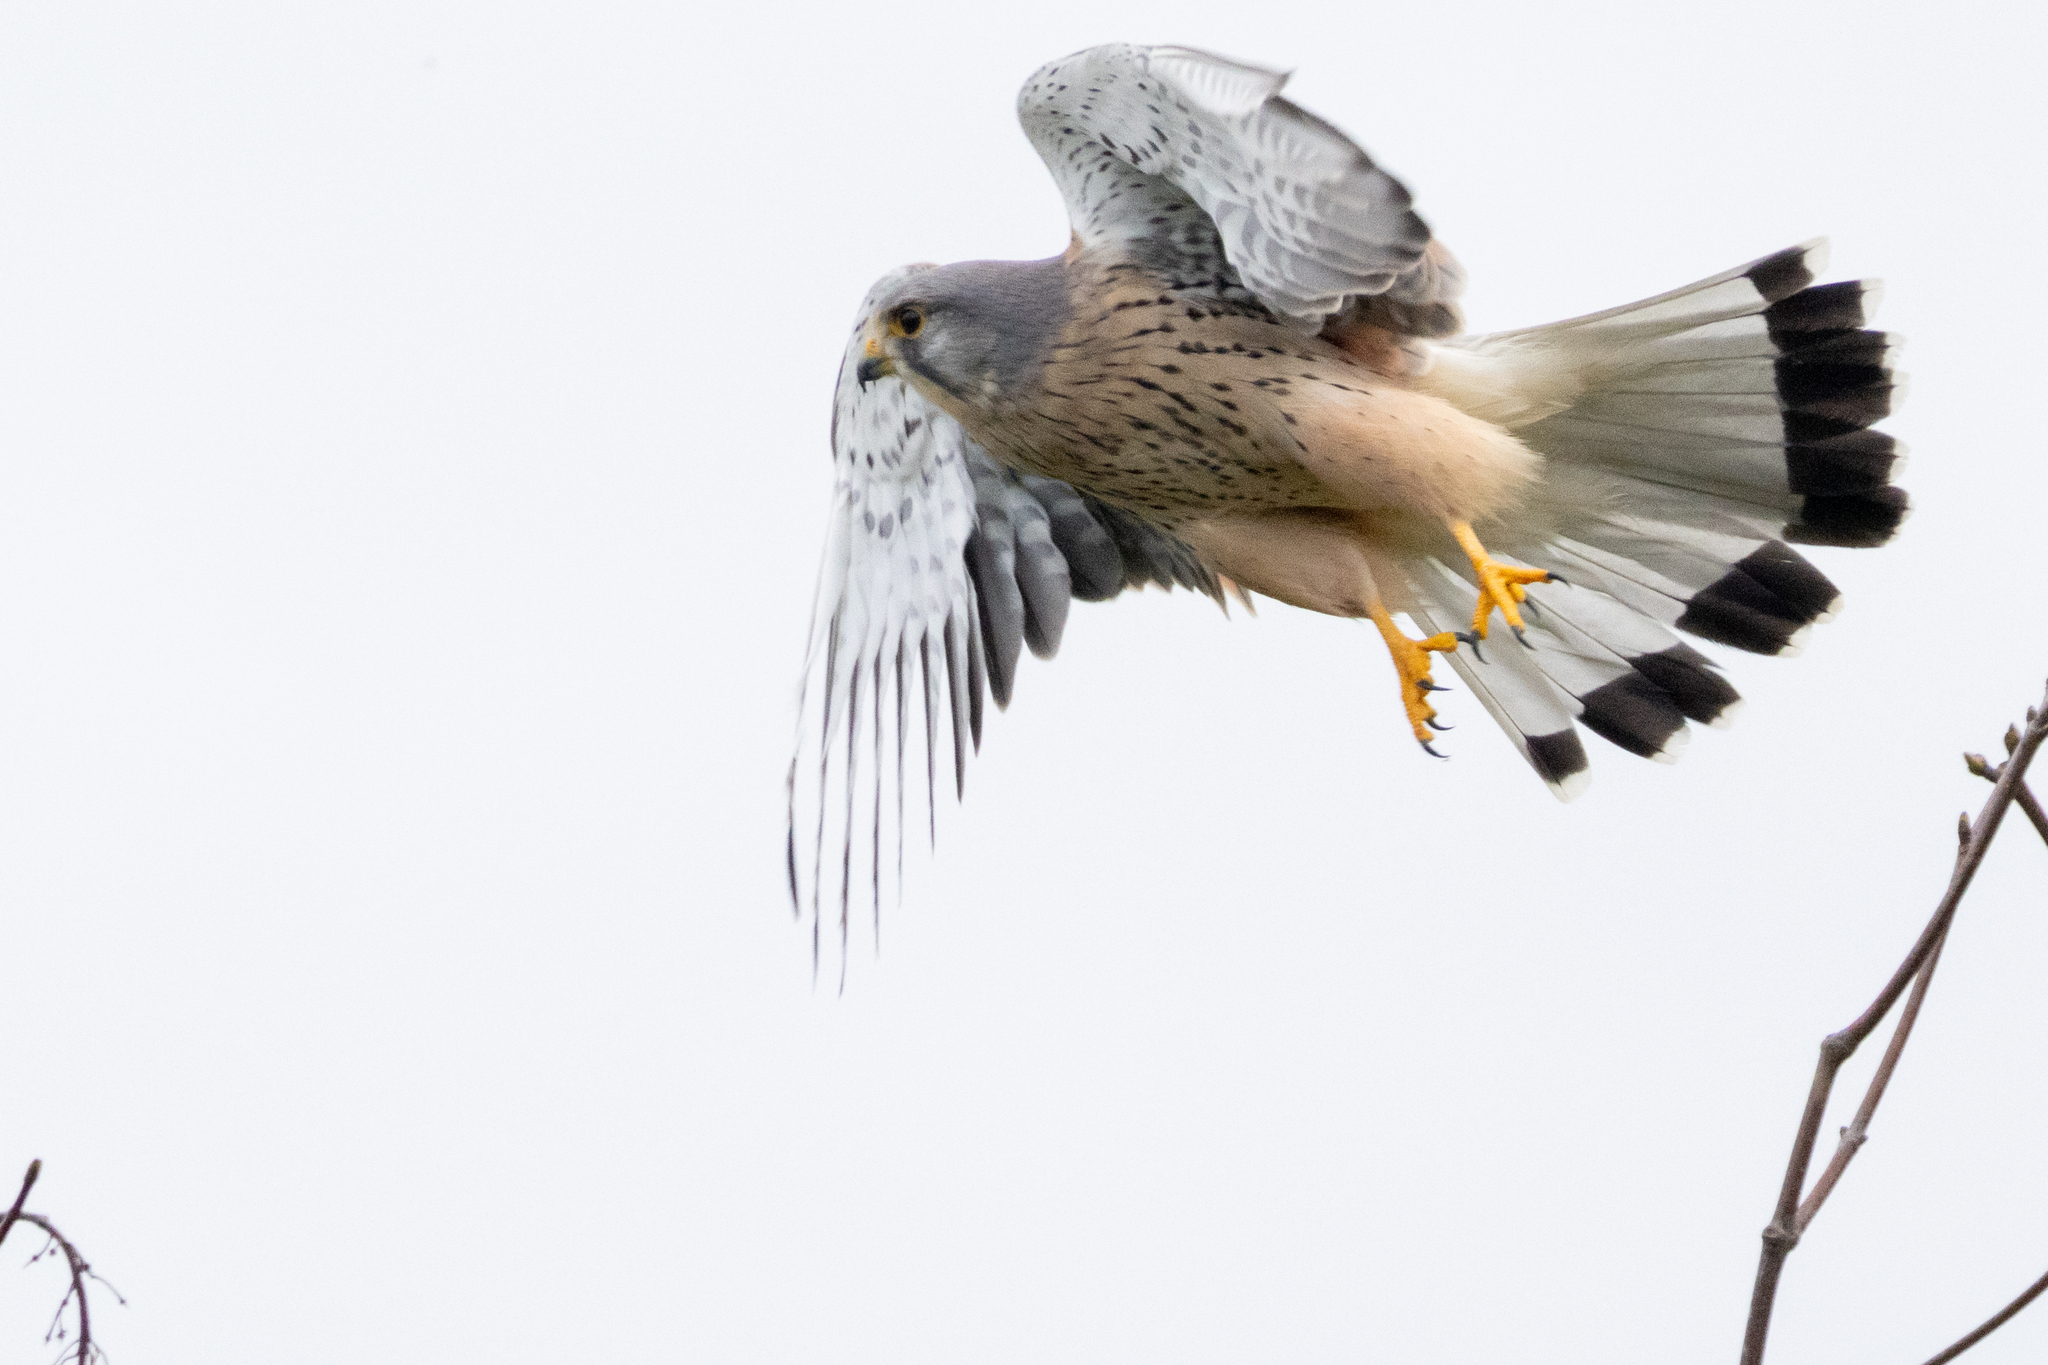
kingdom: Animalia
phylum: Chordata
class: Aves
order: Falconiformes
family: Falconidae
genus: Falco
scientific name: Falco tinnunculus
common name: Common kestrel
